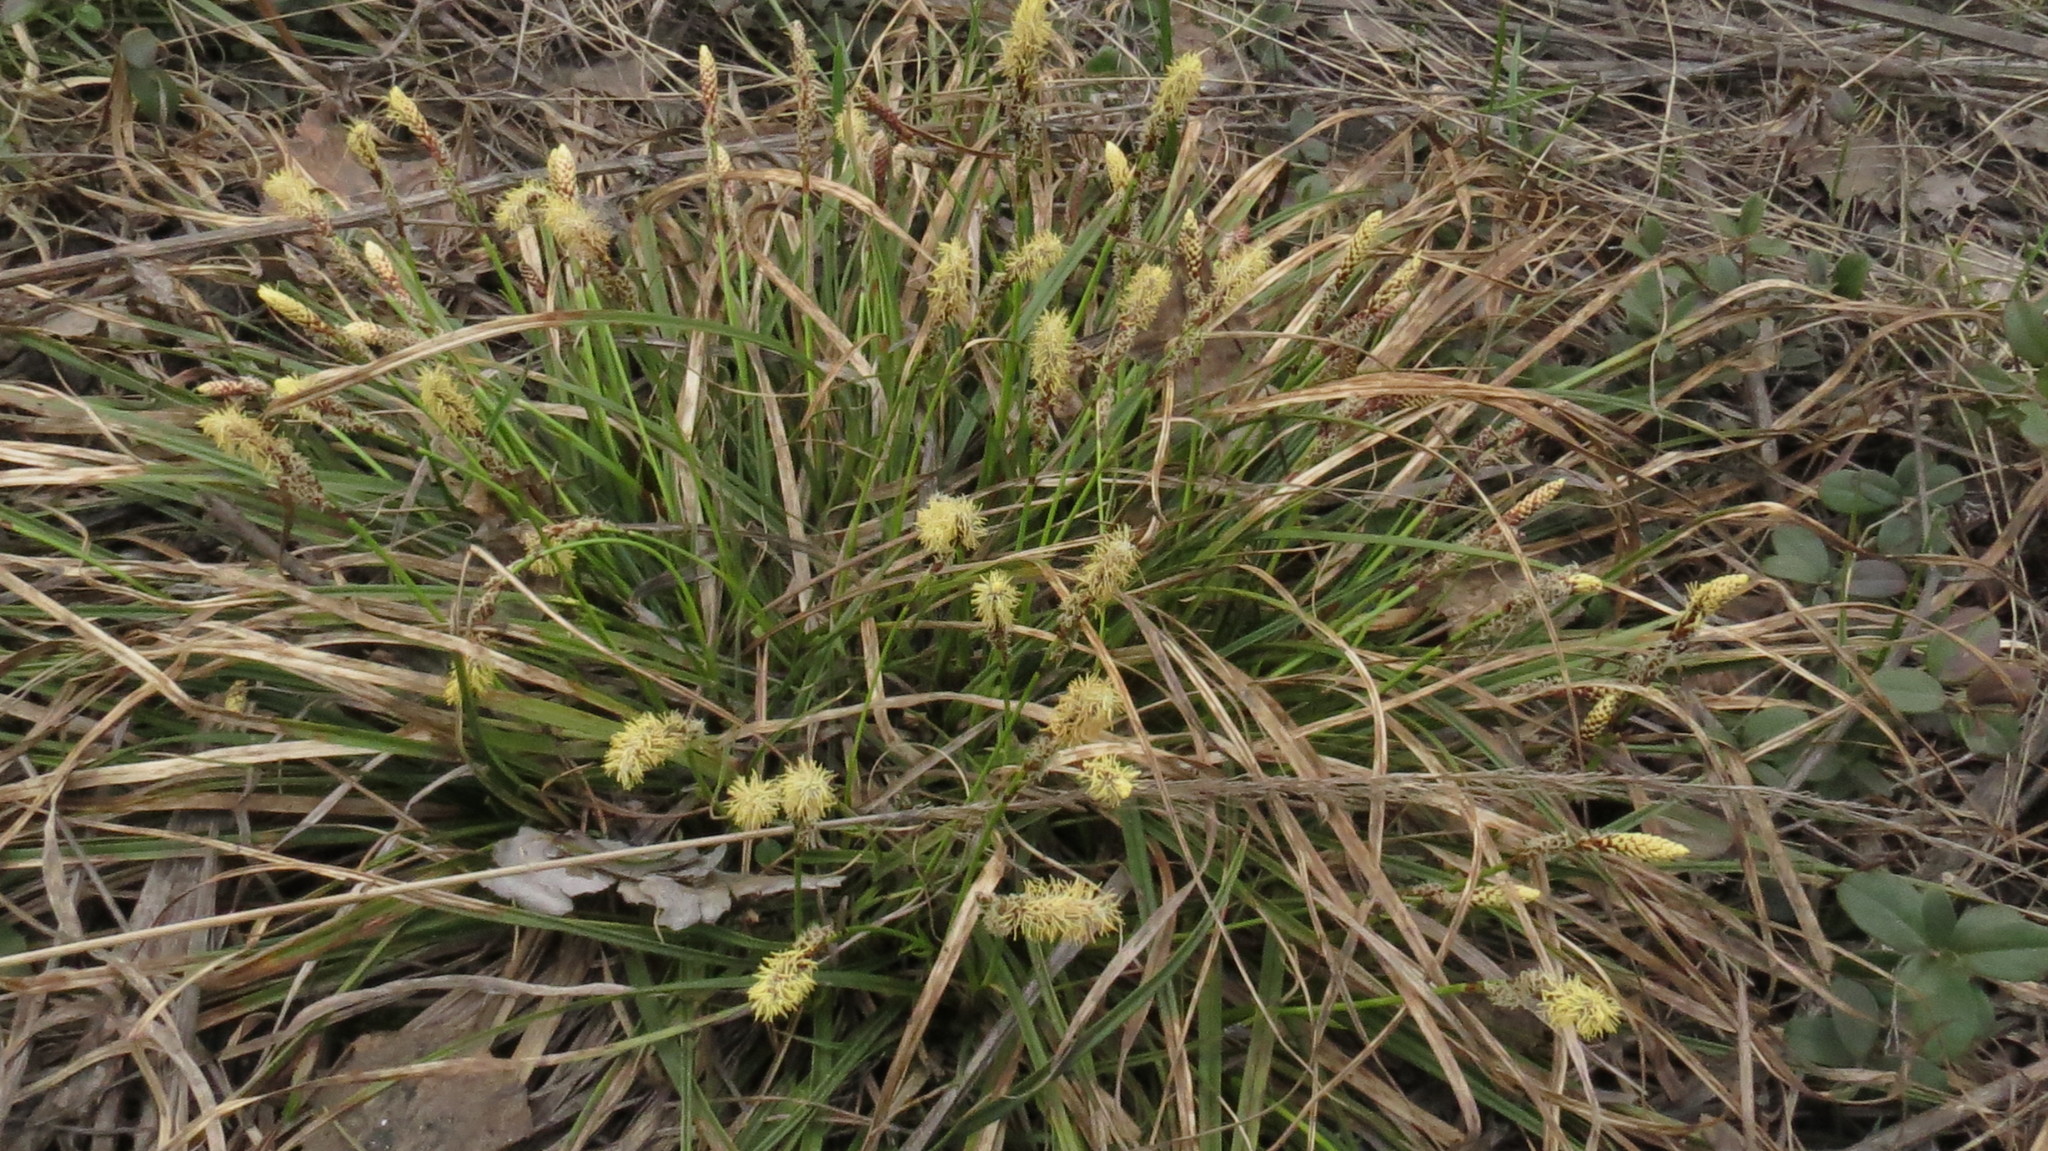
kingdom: Plantae
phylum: Tracheophyta
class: Liliopsida
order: Poales
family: Cyperaceae
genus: Carex
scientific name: Carex ericetorum
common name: Rare spring-sedge
